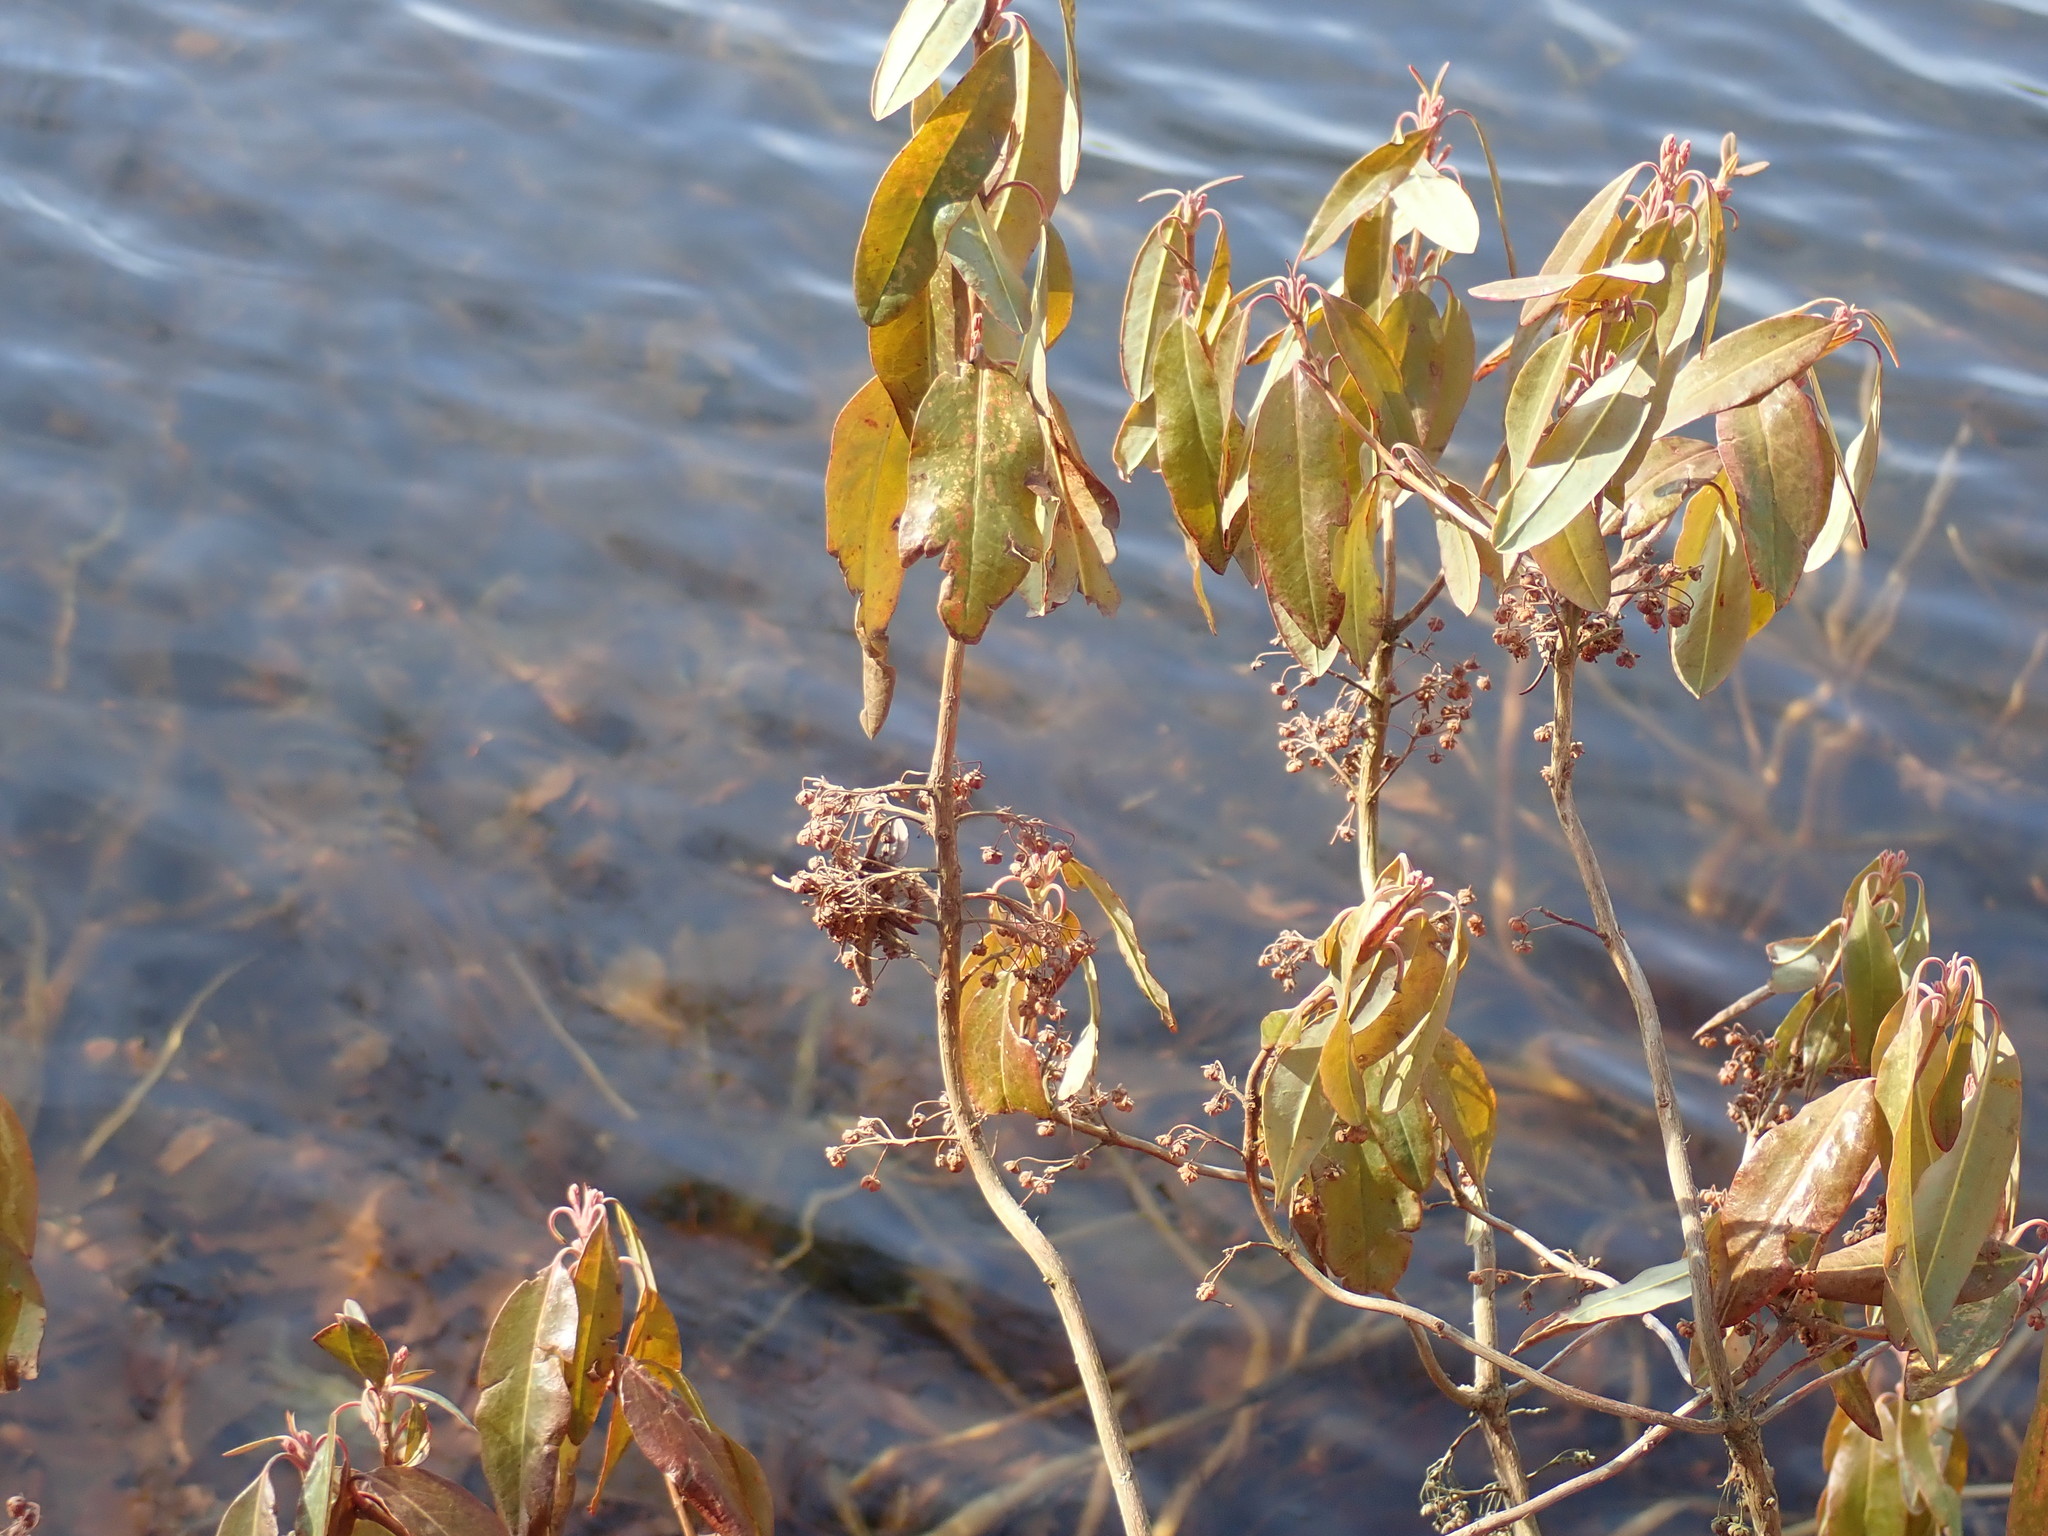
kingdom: Plantae
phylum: Tracheophyta
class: Magnoliopsida
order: Ericales
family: Ericaceae
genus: Kalmia
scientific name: Kalmia angustifolia
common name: Sheep-laurel
